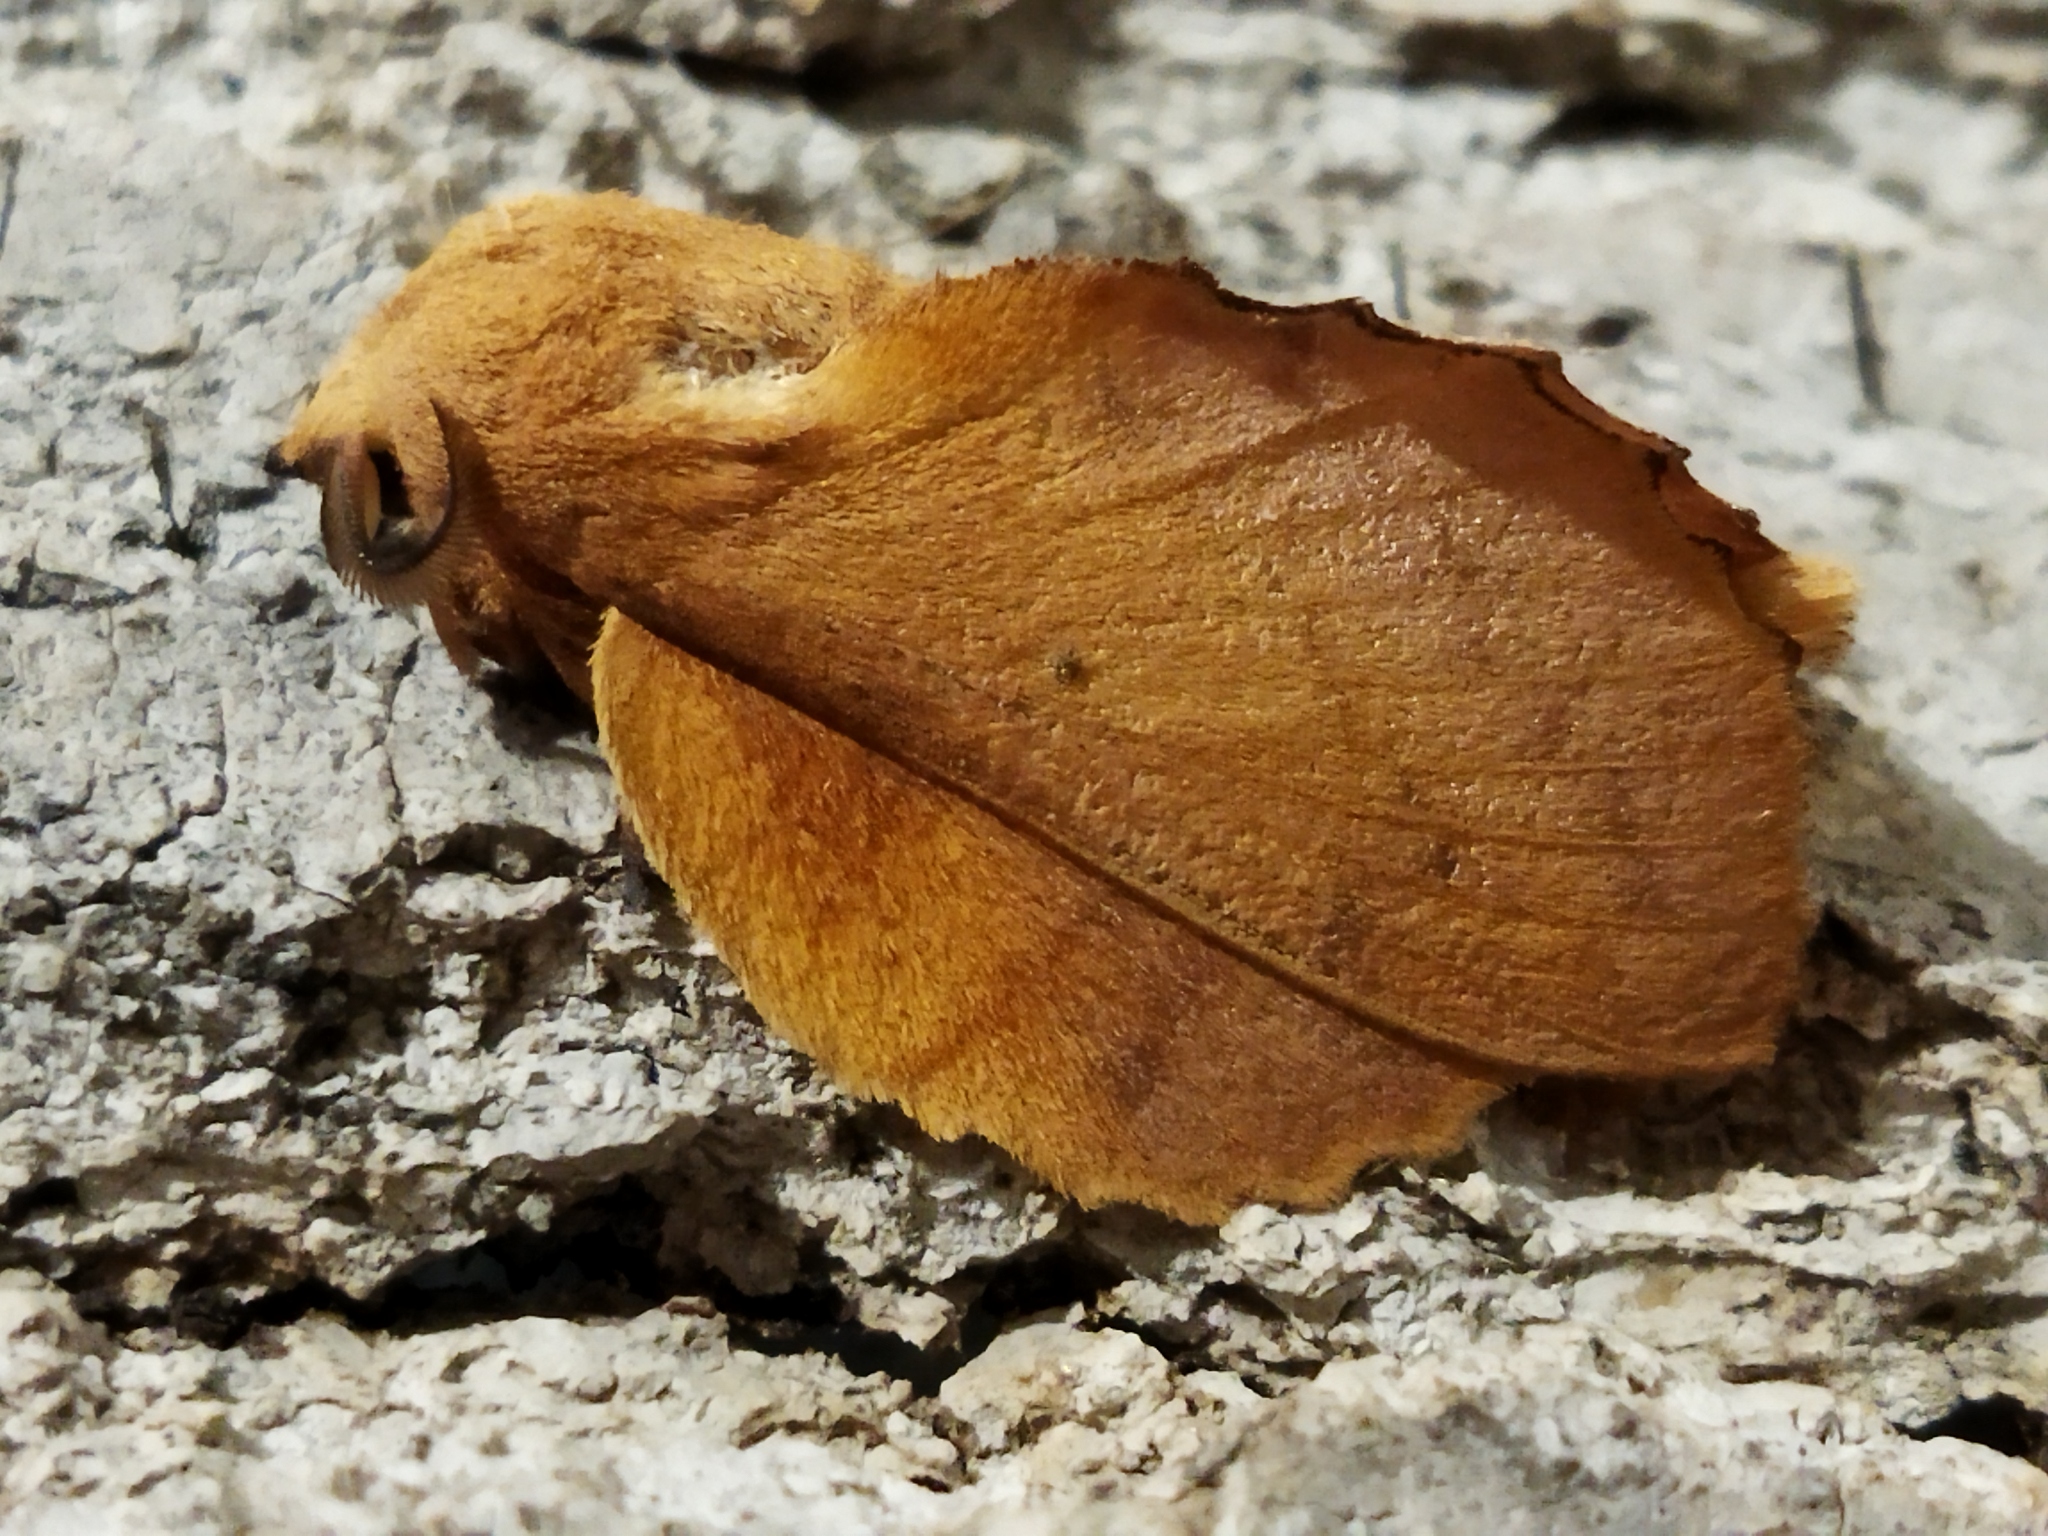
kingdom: Animalia
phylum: Arthropoda
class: Insecta
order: Lepidoptera
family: Lasiocampidae
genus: Gastropacha
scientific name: Gastropacha quercifolia
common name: Lappet
